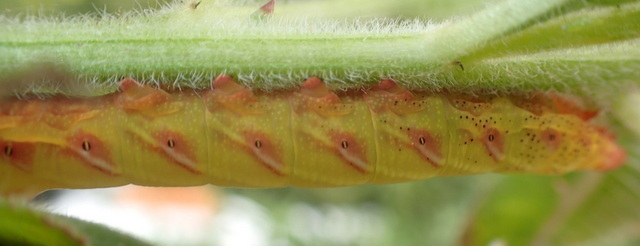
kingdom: Animalia
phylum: Arthropoda
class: Insecta
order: Lepidoptera
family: Sphingidae
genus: Eumorpha
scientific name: Eumorpha fasciatus
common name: Banded sphinx
